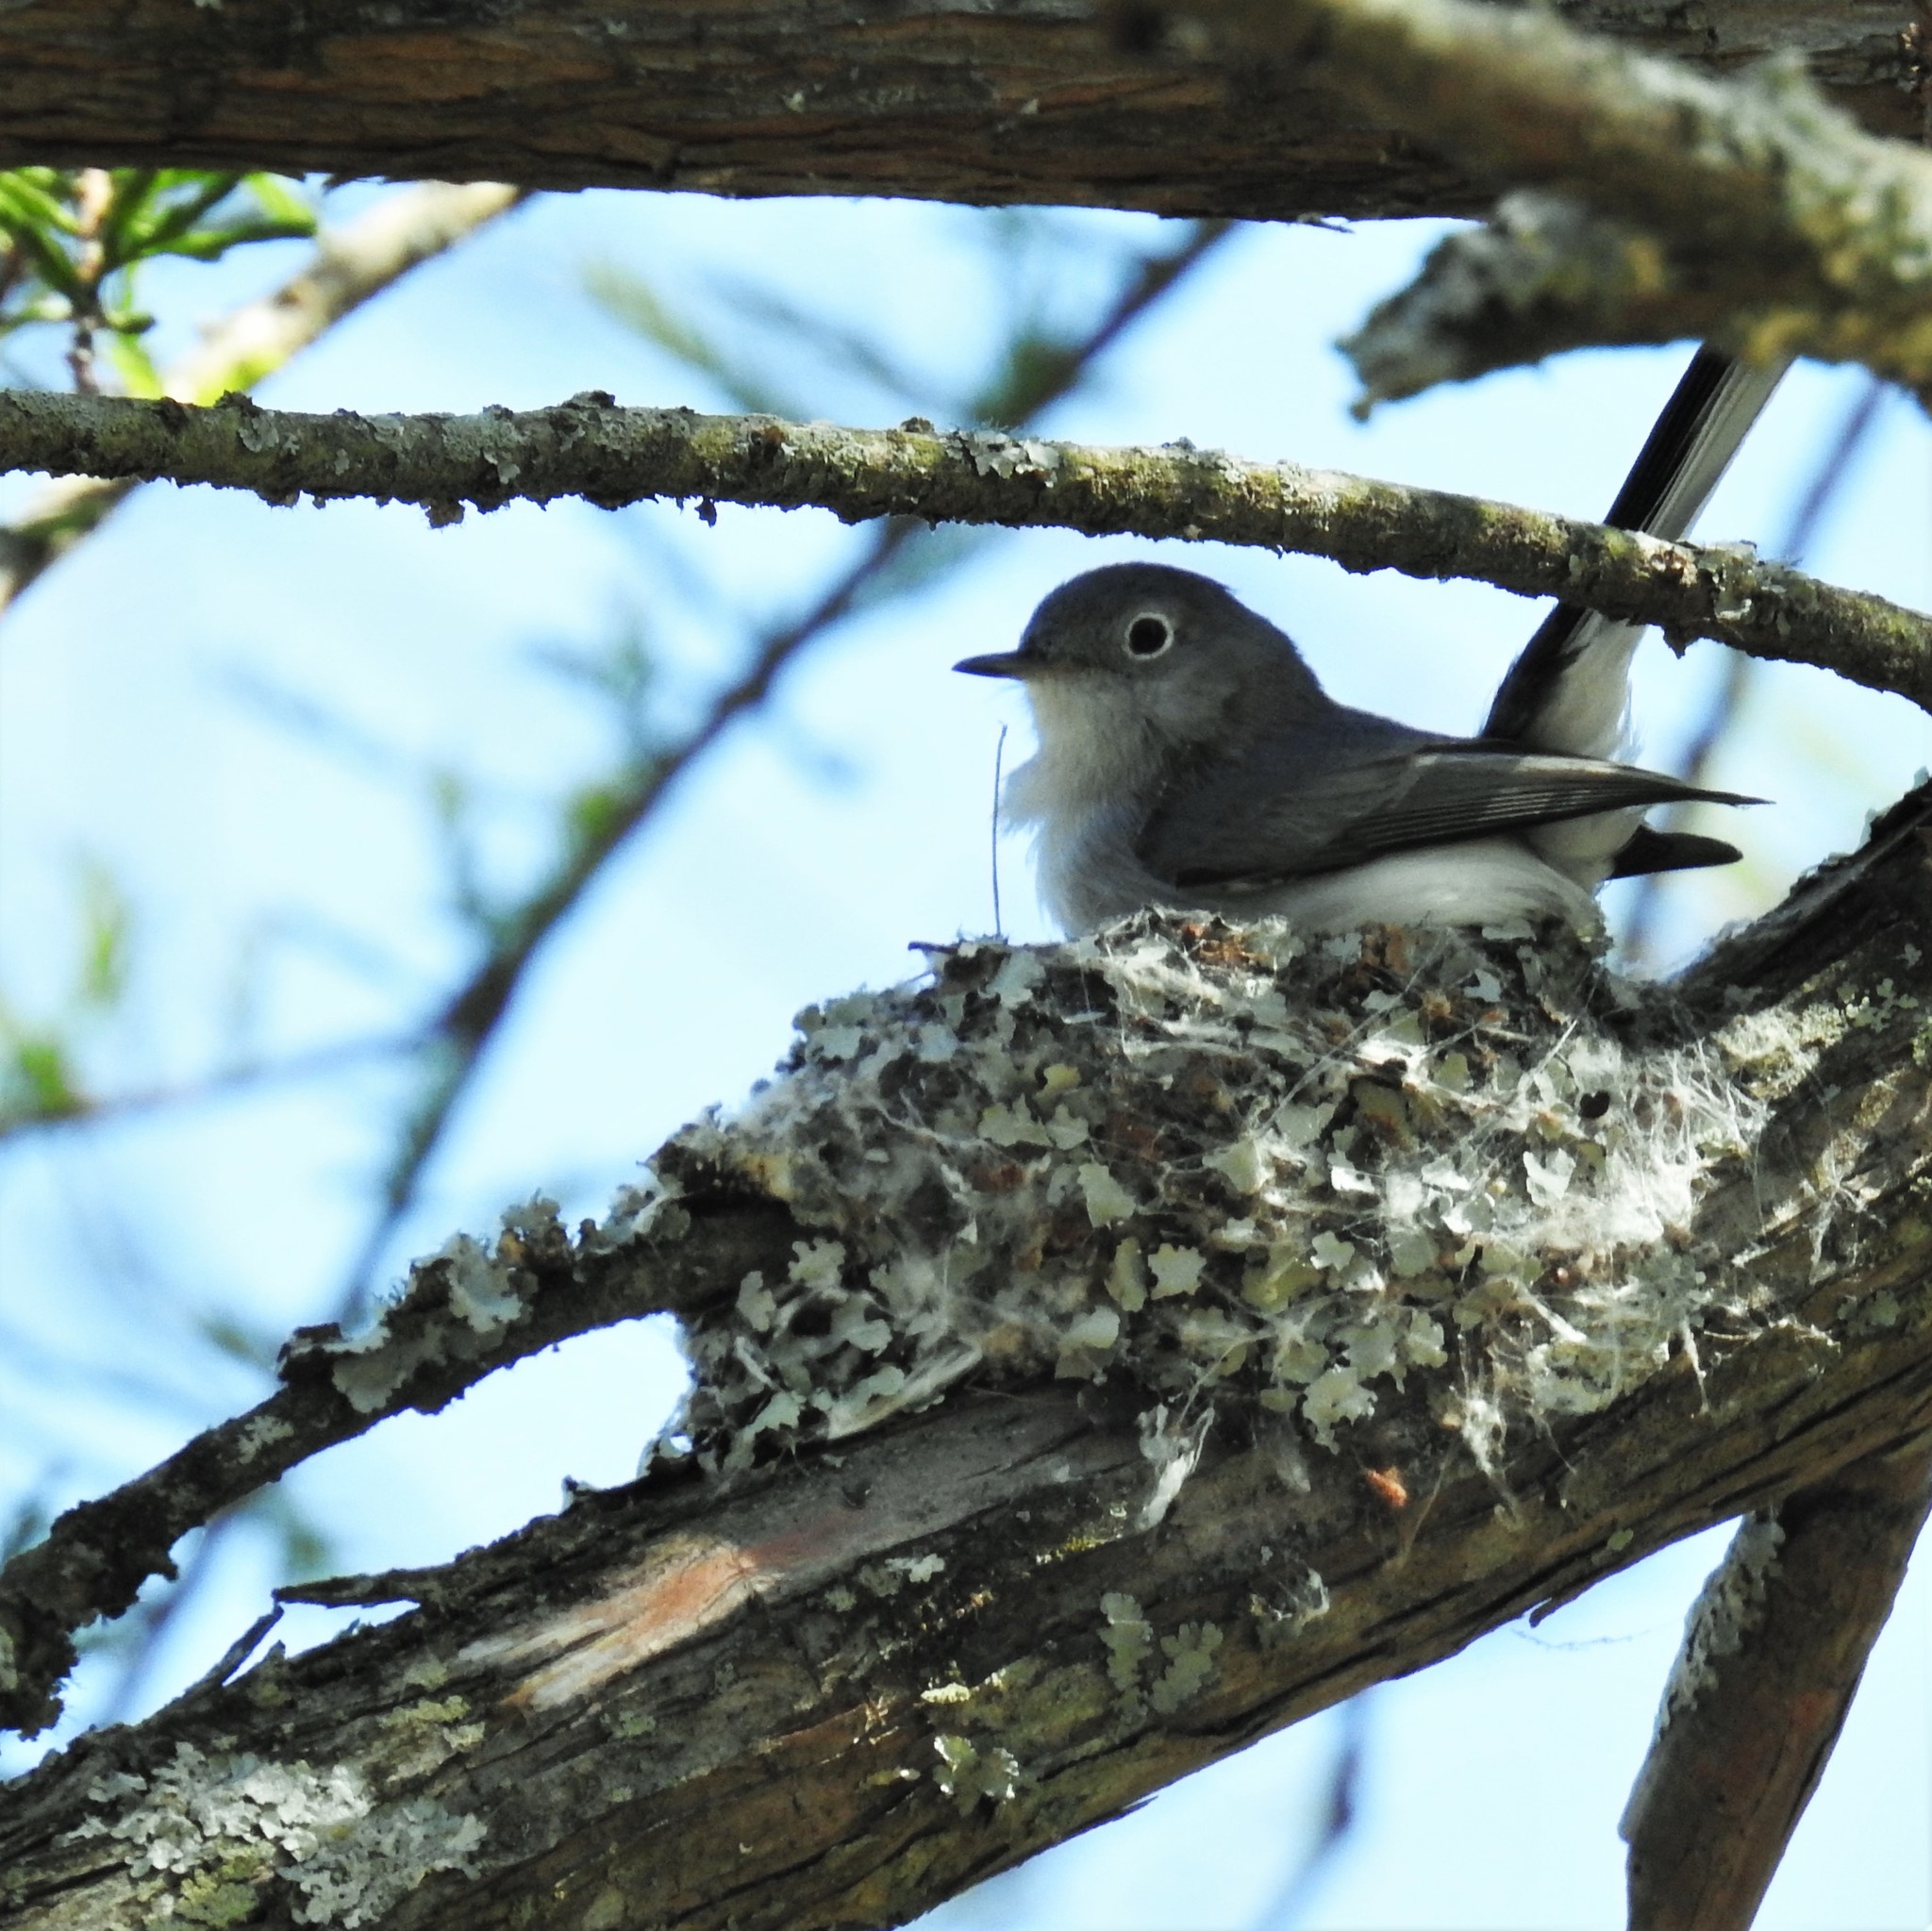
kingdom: Animalia
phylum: Chordata
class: Aves
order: Passeriformes
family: Polioptilidae
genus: Polioptila
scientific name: Polioptila caerulea
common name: Blue-gray gnatcatcher
